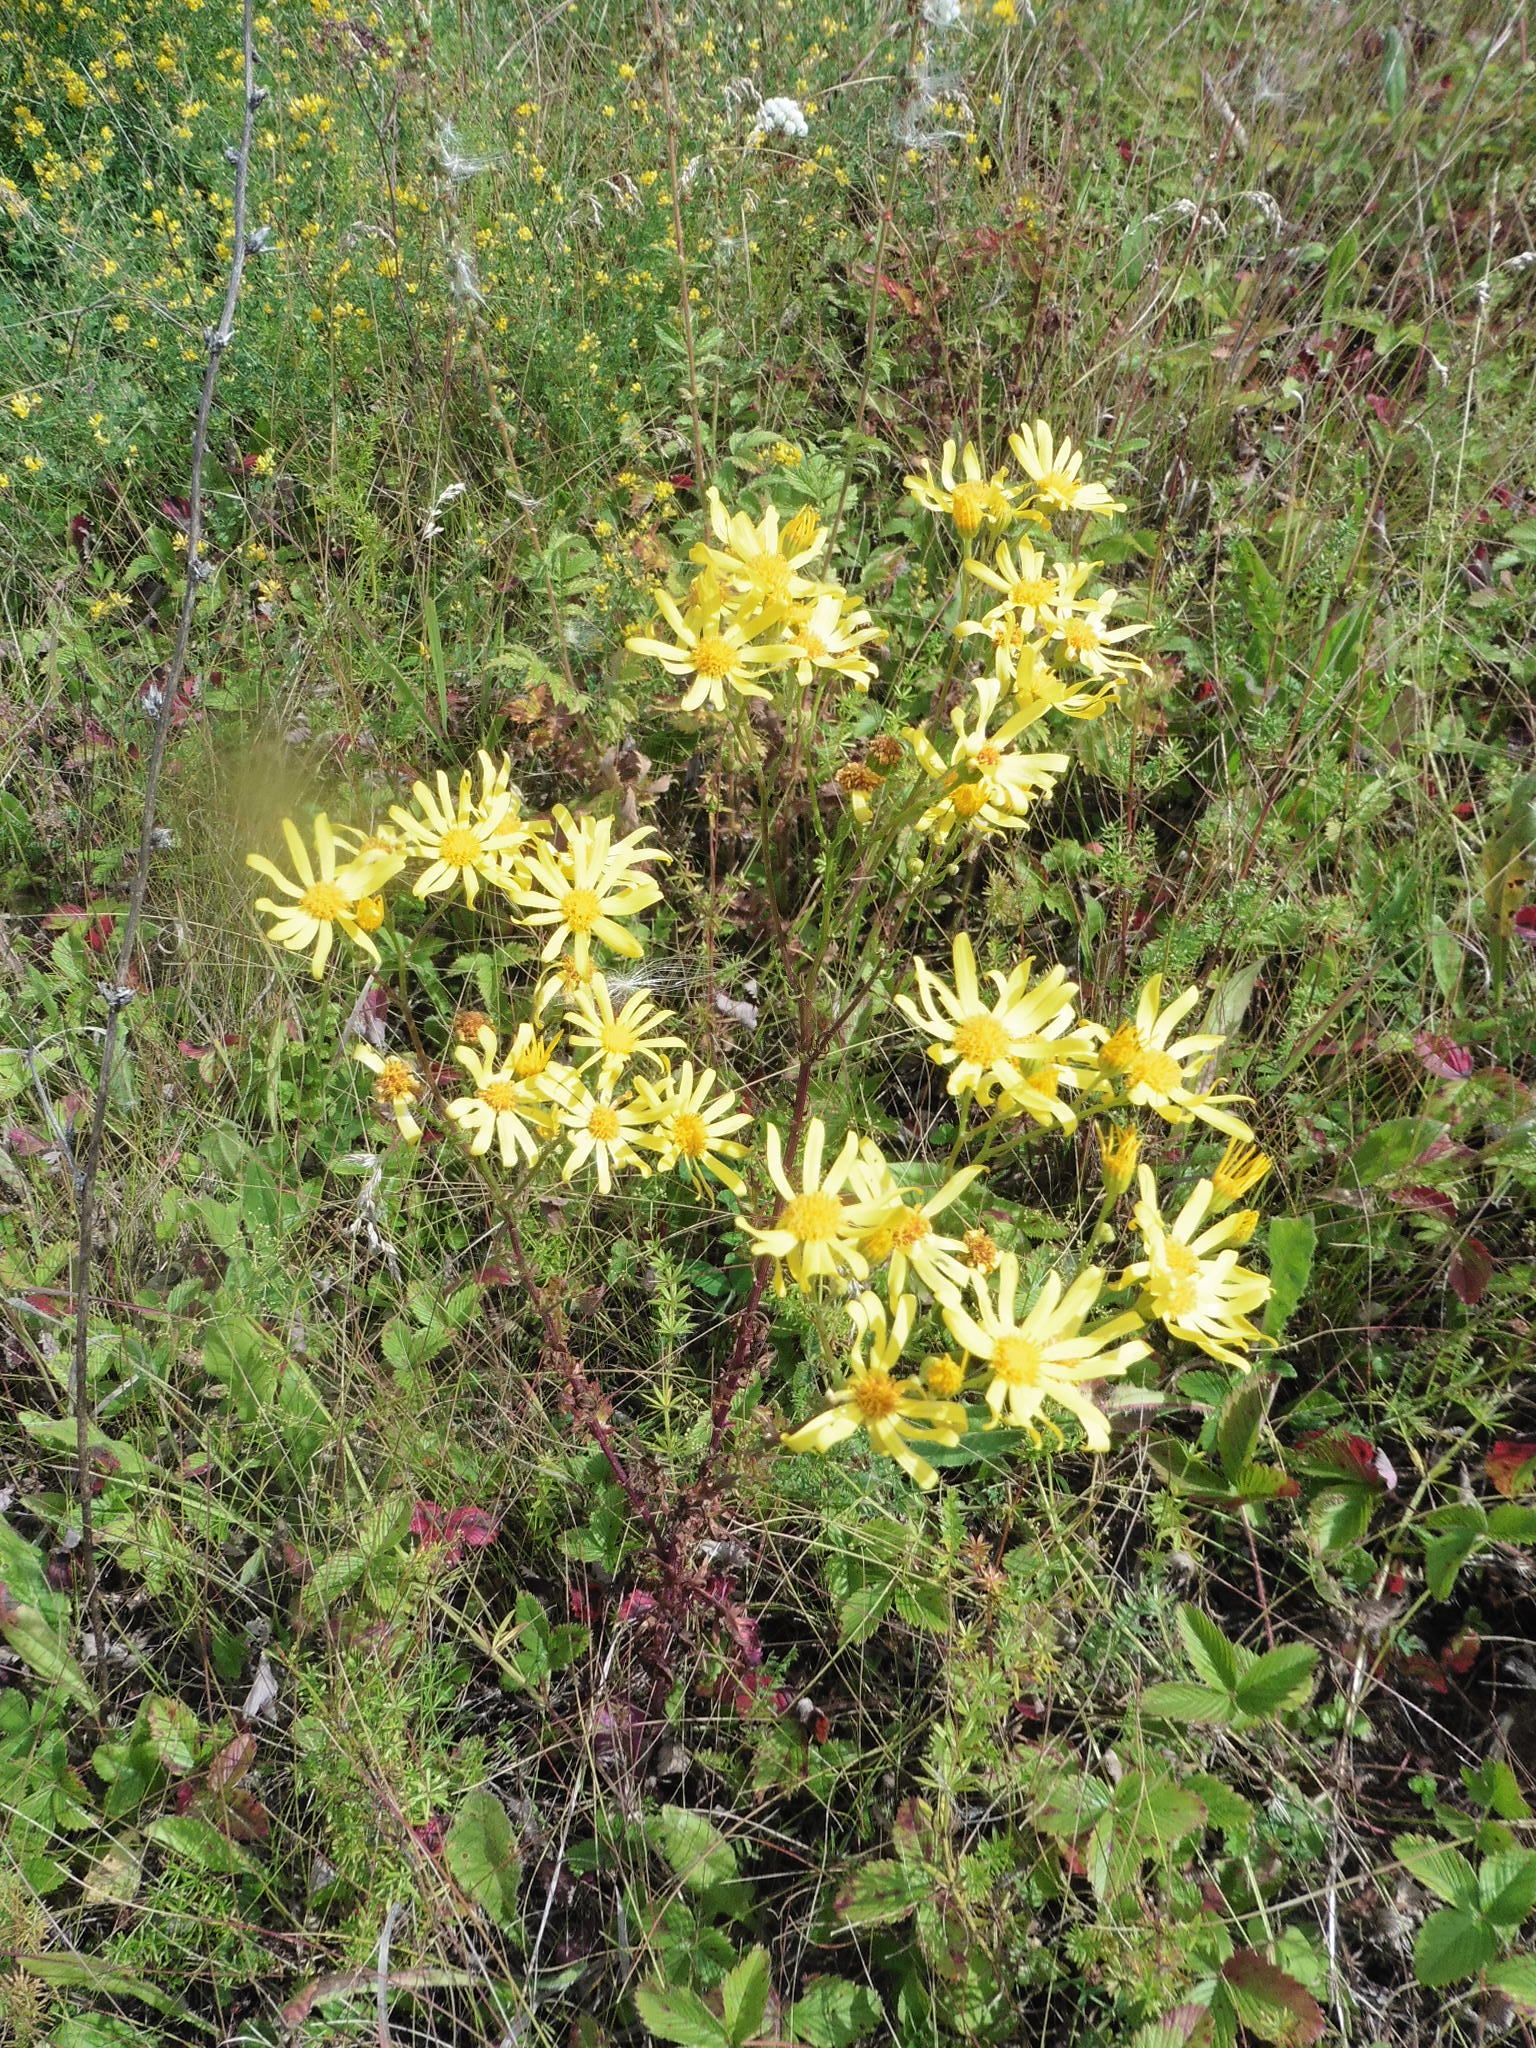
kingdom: Plantae
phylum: Tracheophyta
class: Magnoliopsida
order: Asterales
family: Asteraceae
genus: Jacobaea
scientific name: Jacobaea vulgaris
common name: Stinking willie
